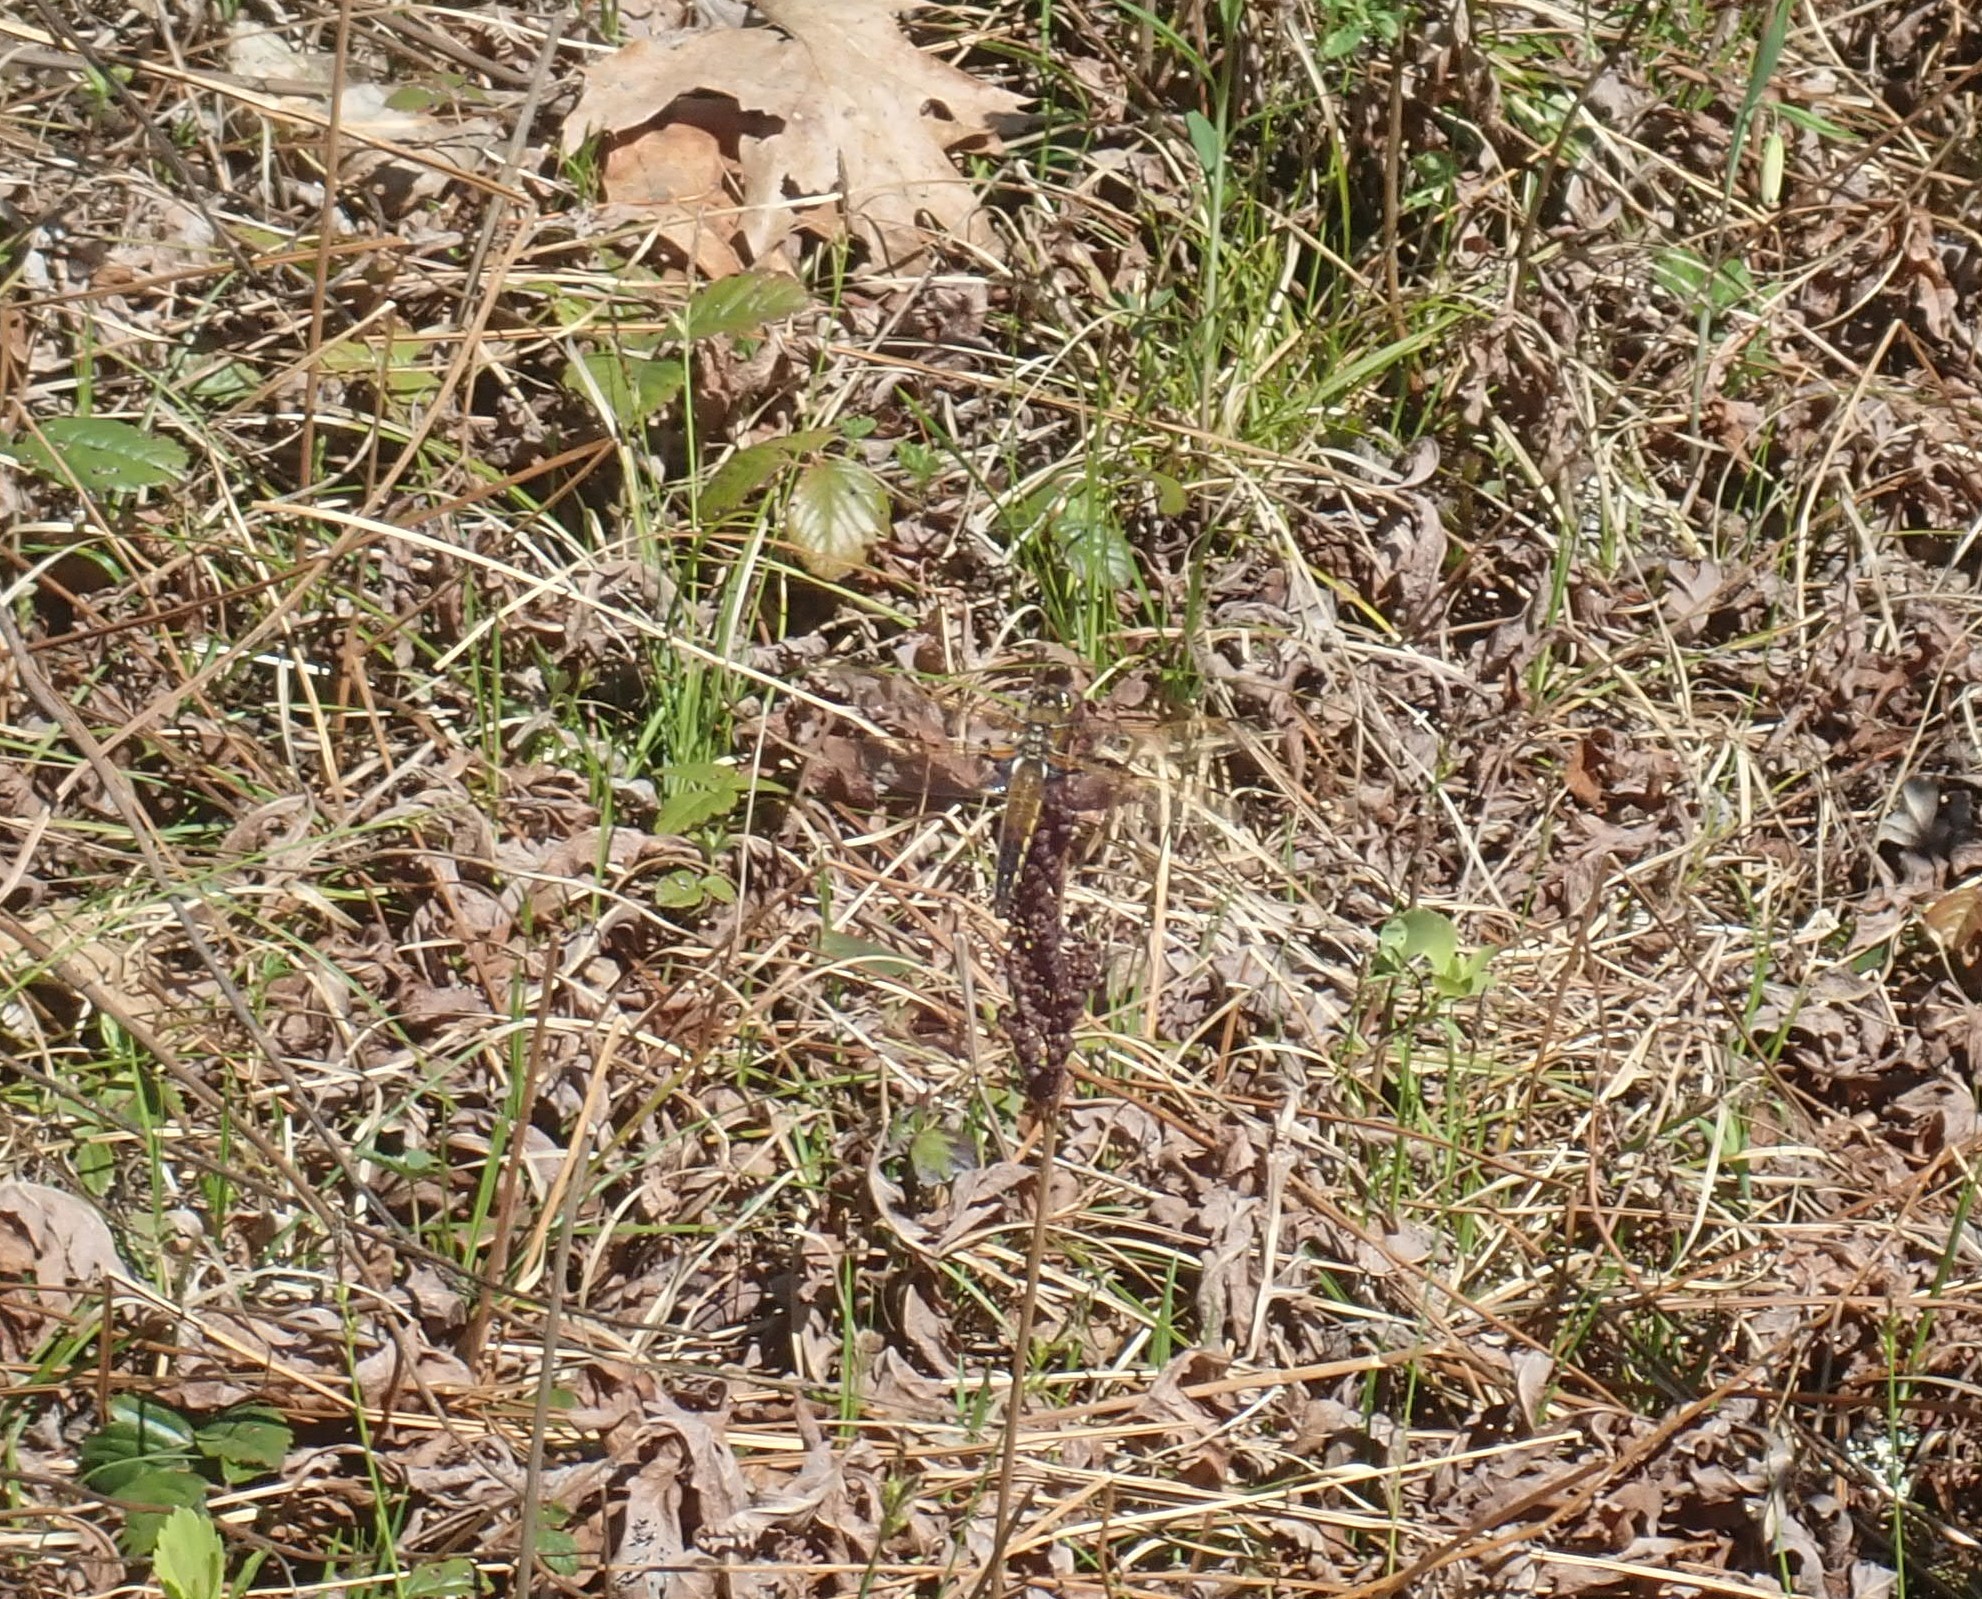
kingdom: Animalia
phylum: Arthropoda
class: Insecta
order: Odonata
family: Libellulidae
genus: Libellula
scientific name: Libellula quadrimaculata
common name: Four-spotted chaser
